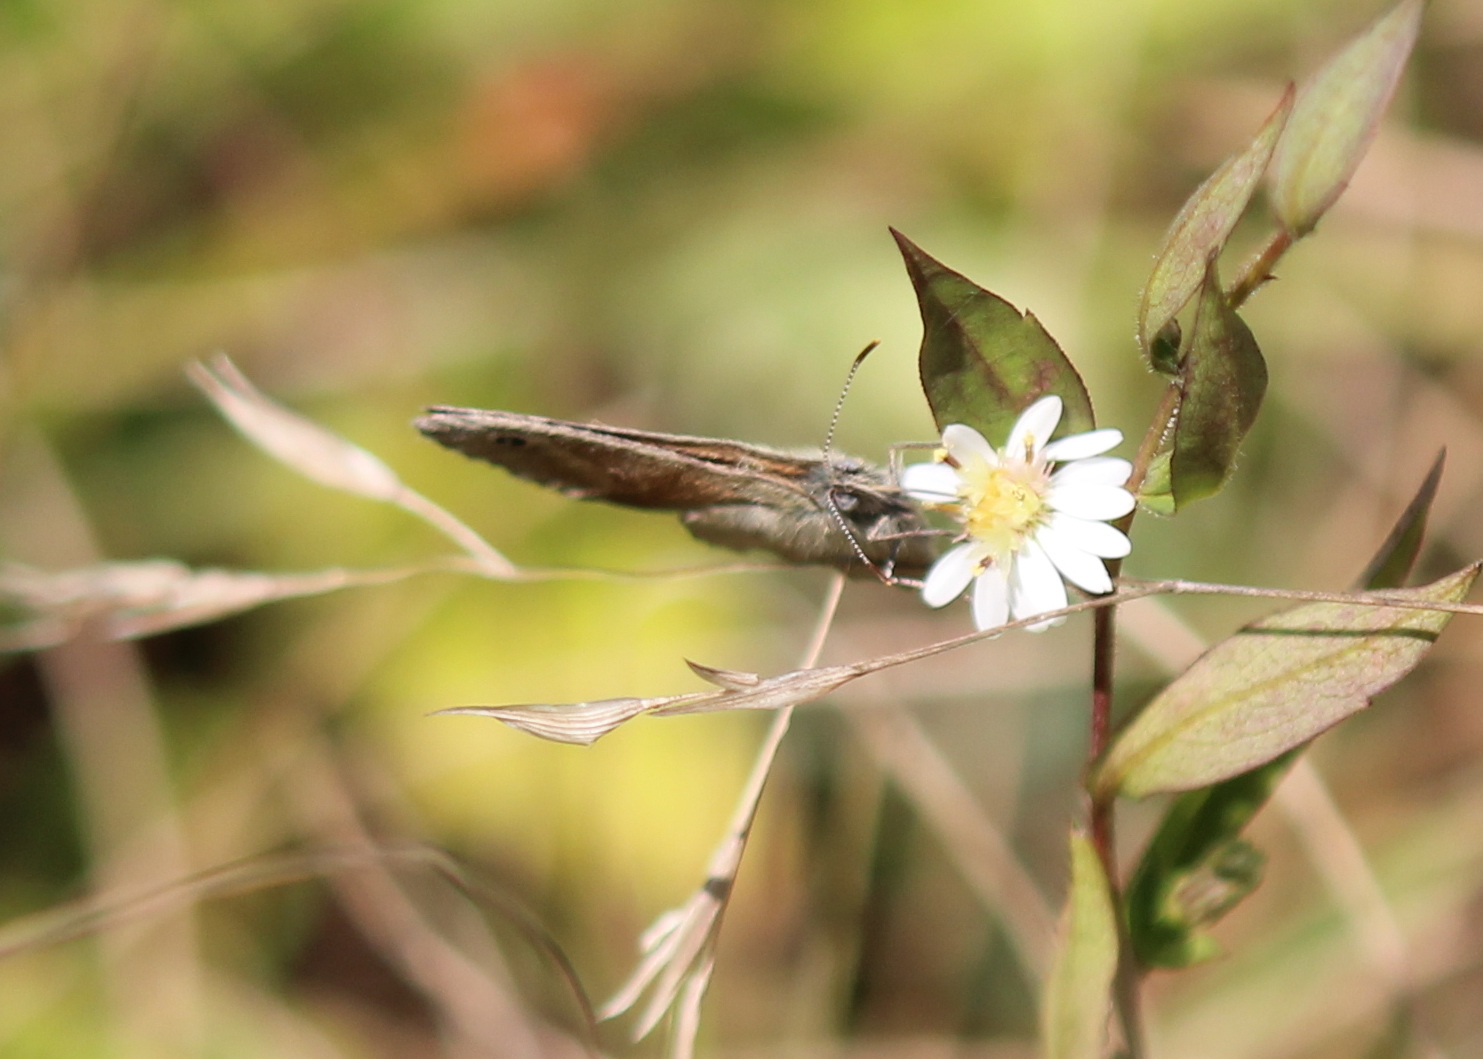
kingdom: Animalia
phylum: Arthropoda
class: Insecta
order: Lepidoptera
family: Nymphalidae
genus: Coenonympha
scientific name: Coenonympha california
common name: Common ringlet
